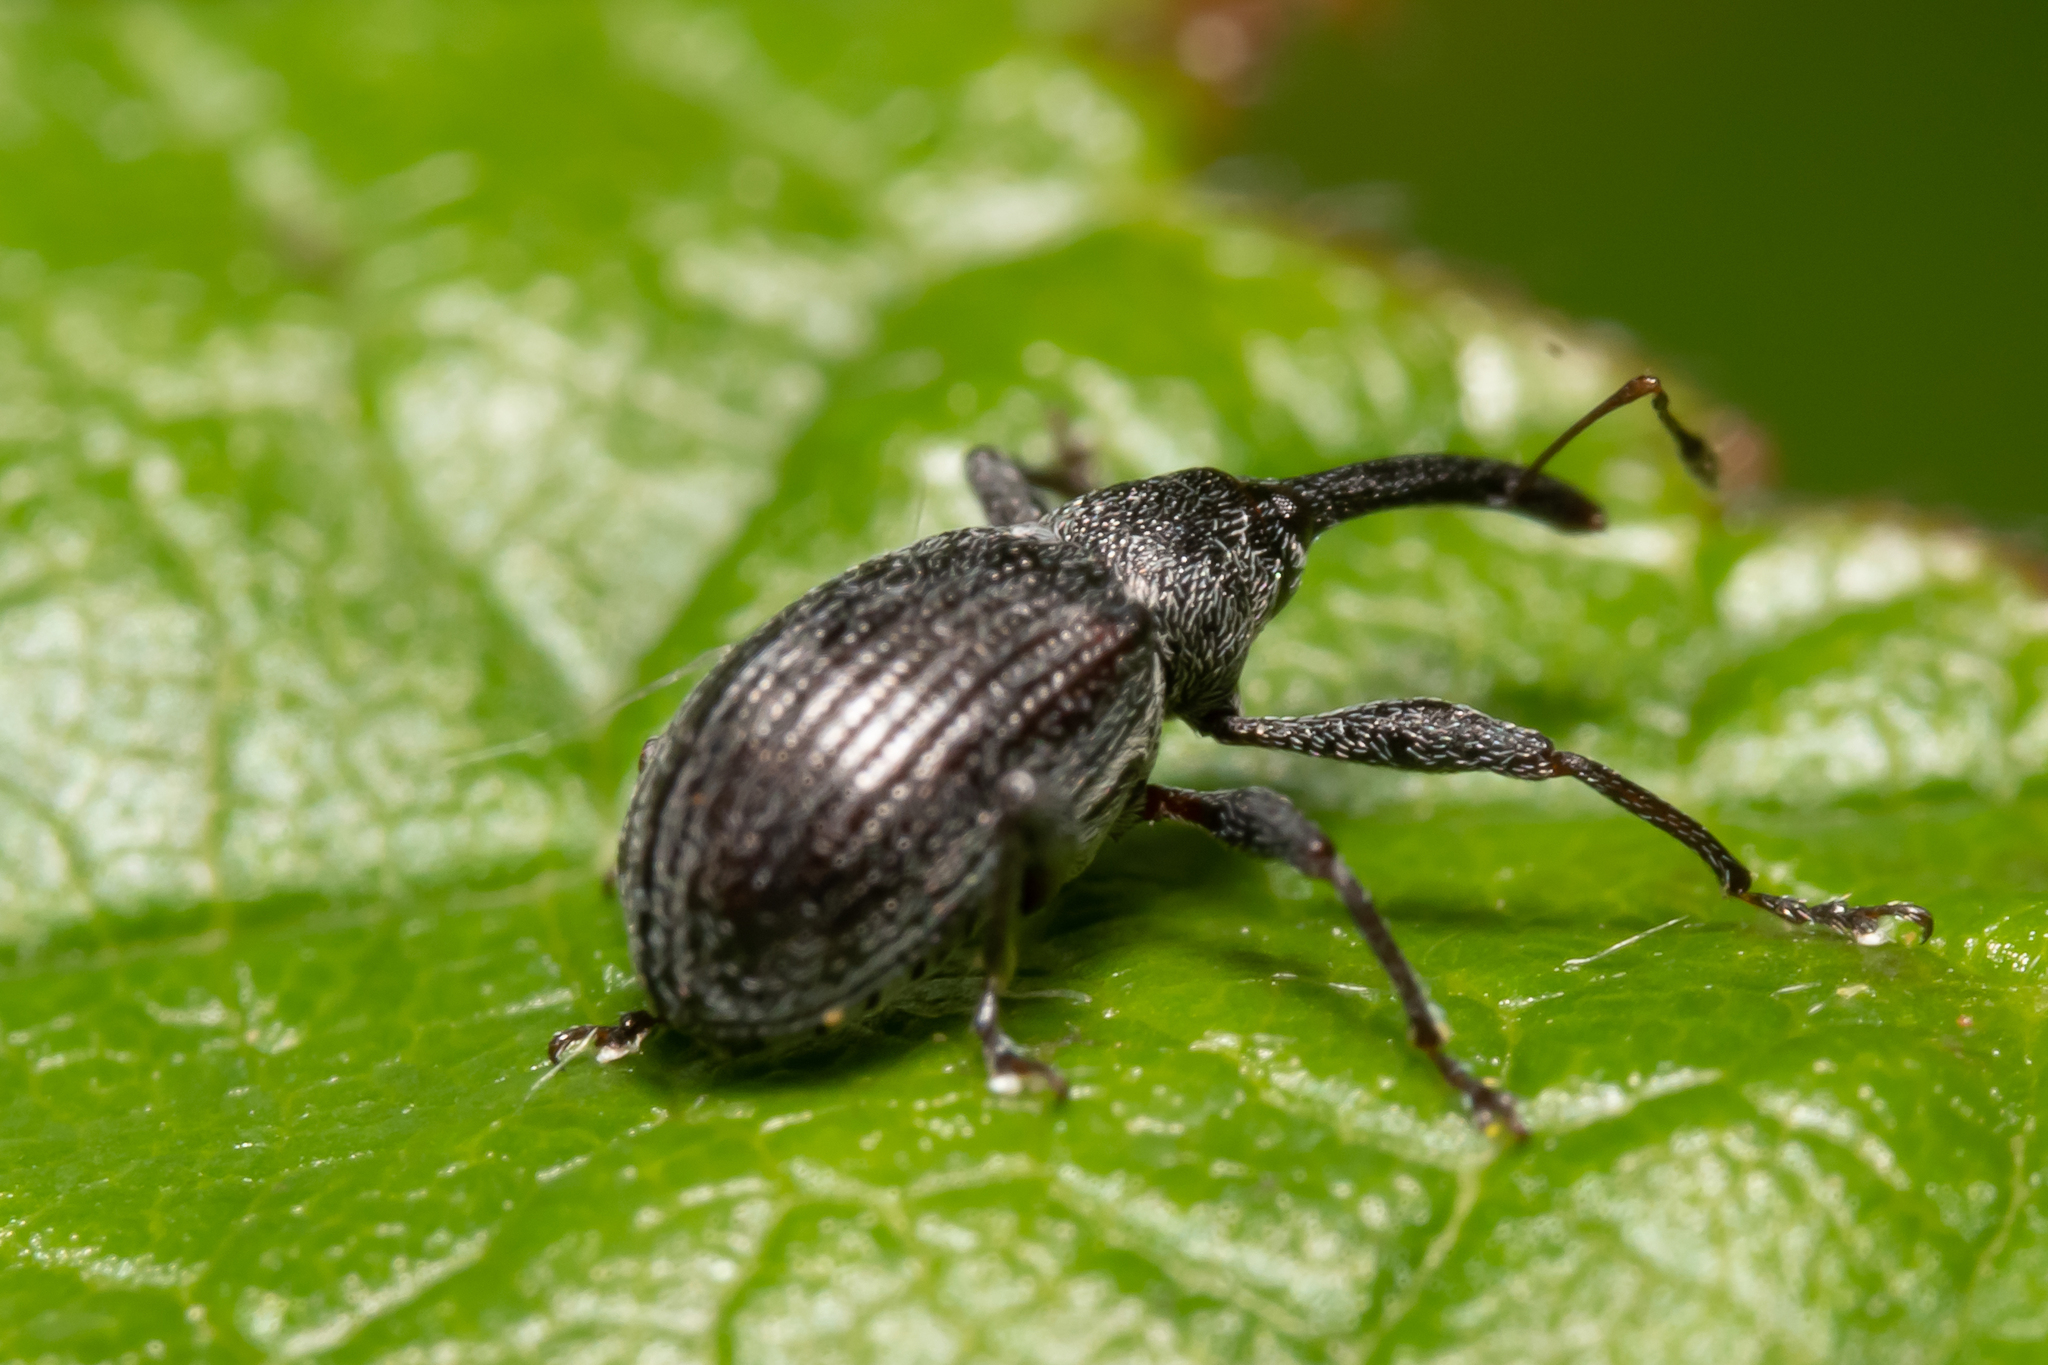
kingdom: Animalia
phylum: Arthropoda
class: Insecta
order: Coleoptera
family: Curculionidae
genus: Anthonomus
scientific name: Anthonomus rubi
